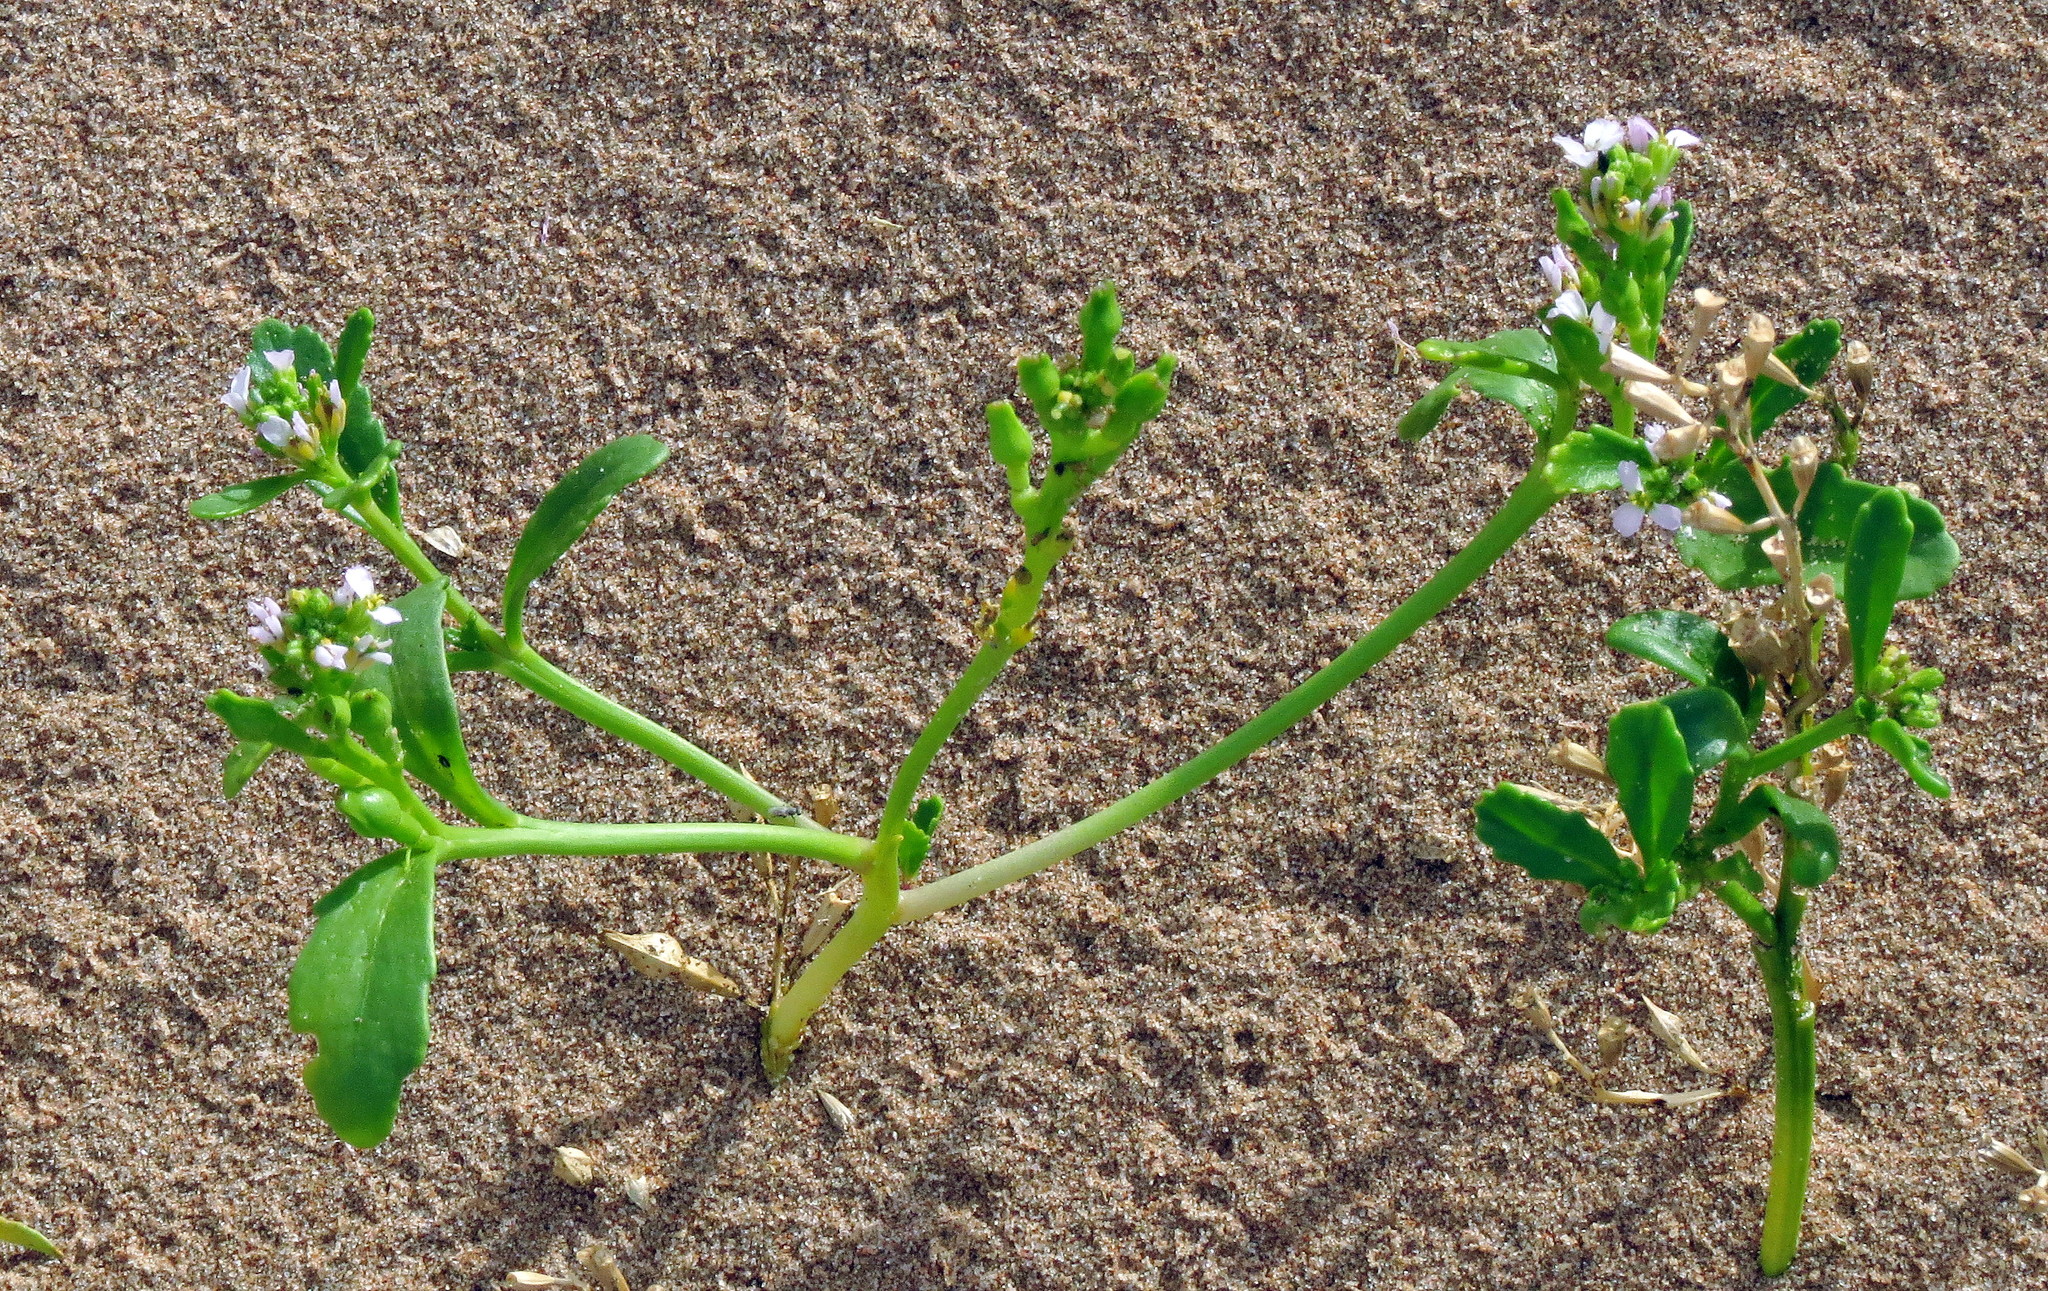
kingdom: Plantae
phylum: Tracheophyta
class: Magnoliopsida
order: Brassicales
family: Brassicaceae
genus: Cakile
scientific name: Cakile edentula
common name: American sea rocket
